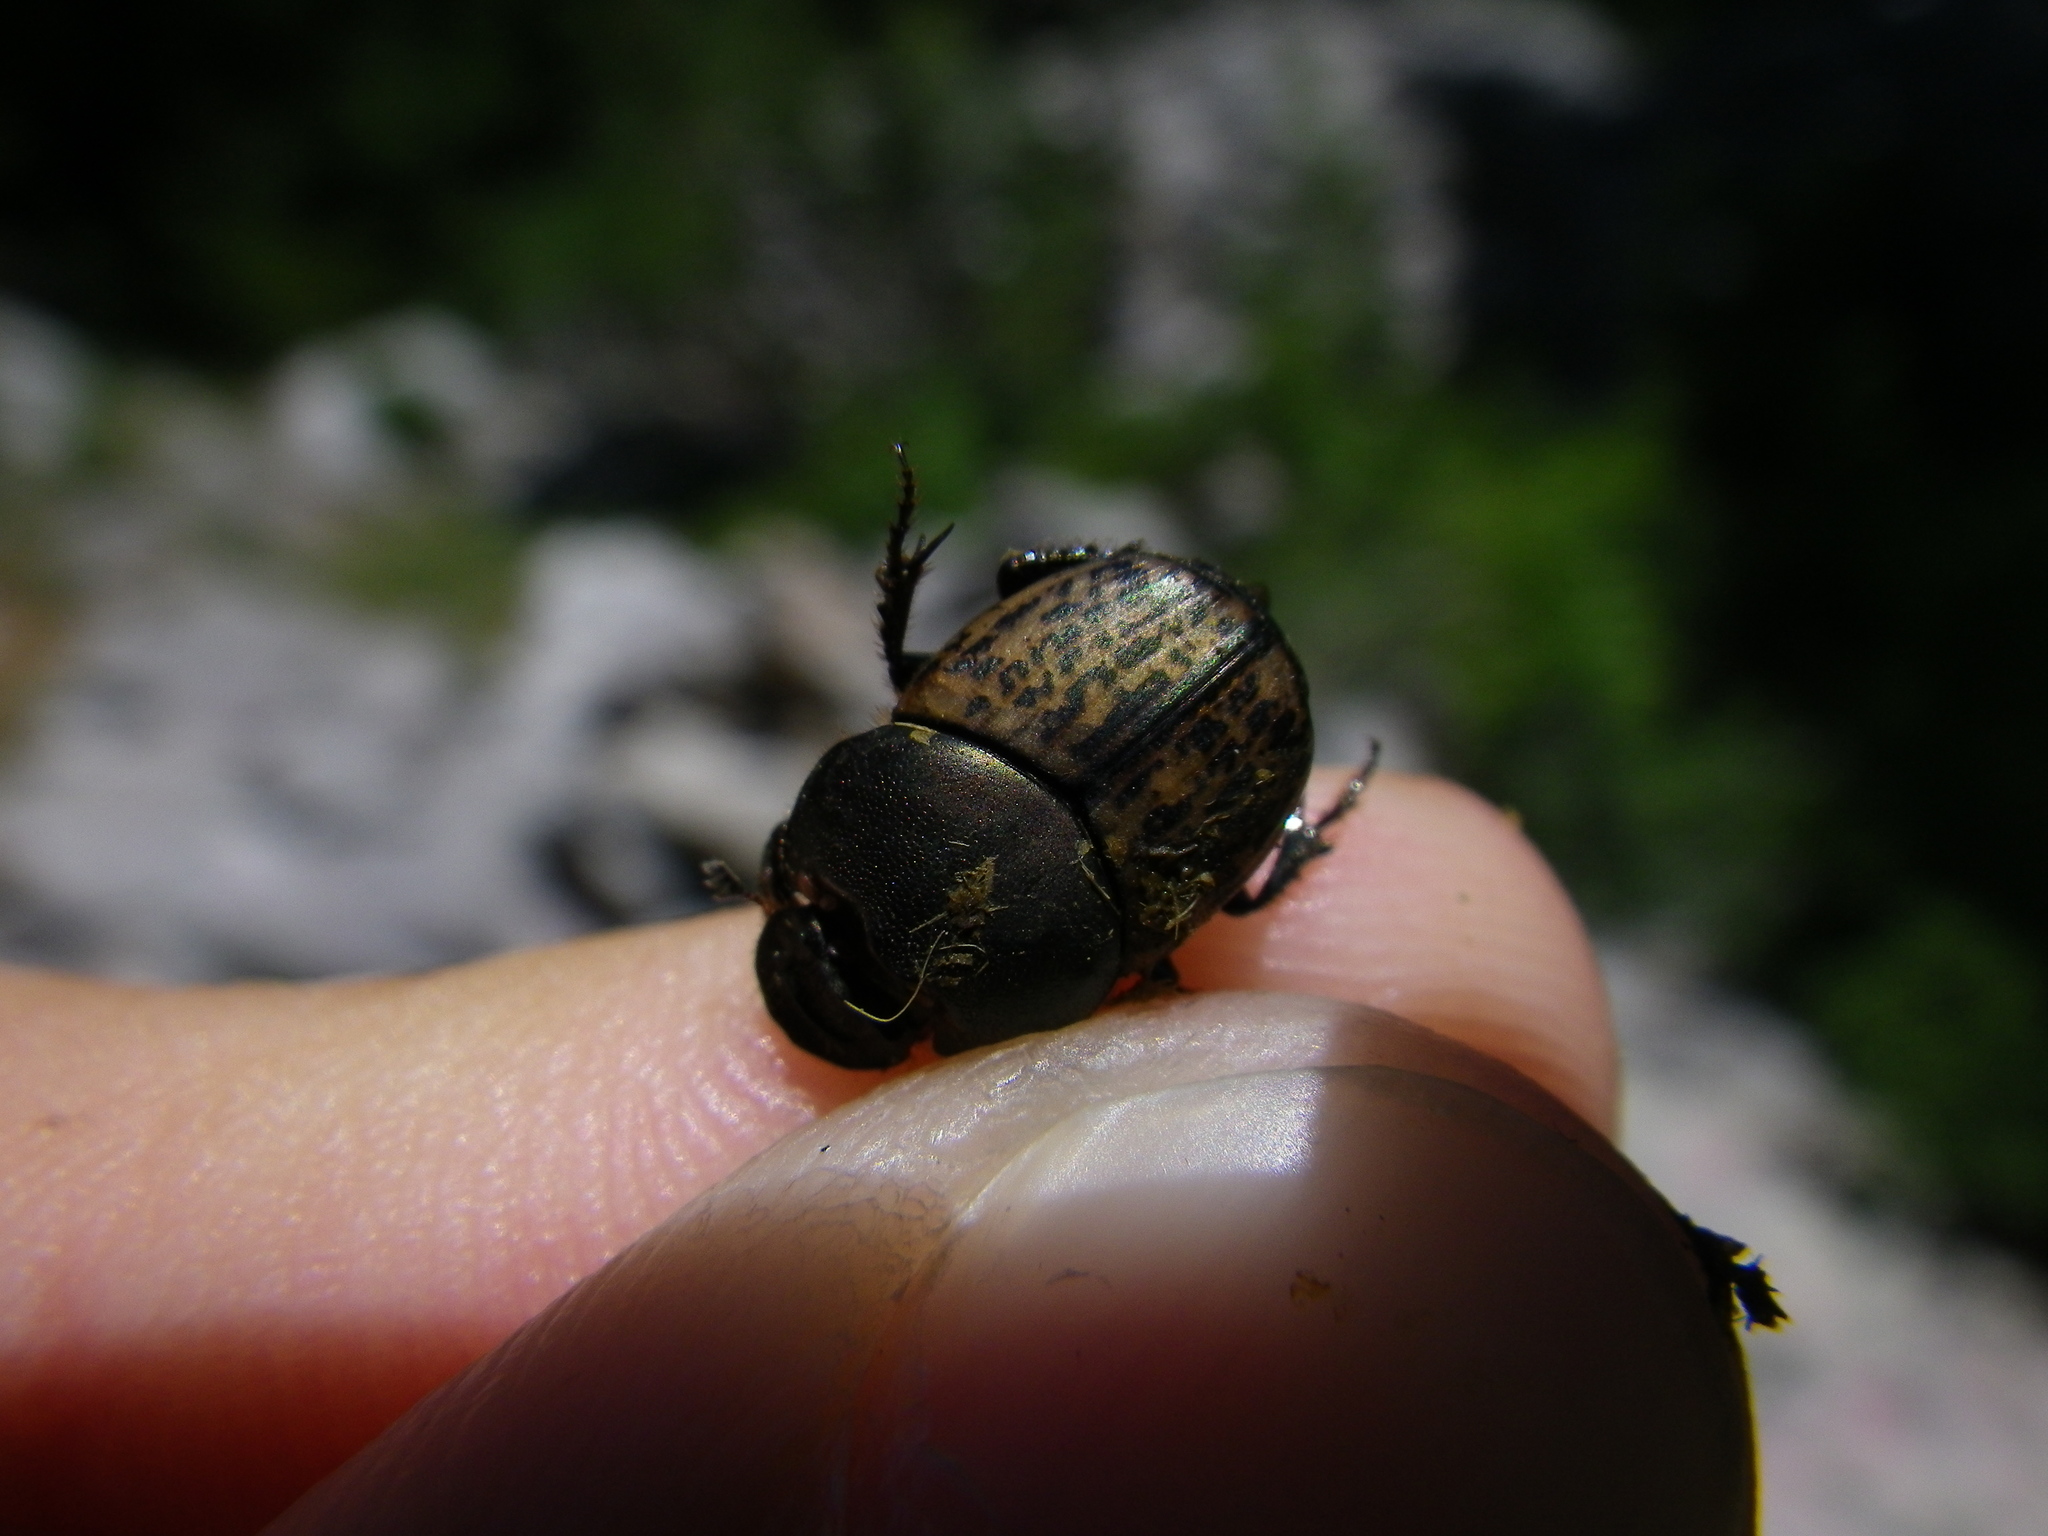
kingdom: Animalia
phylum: Arthropoda
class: Insecta
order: Coleoptera
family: Scarabaeidae
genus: Onthophagus
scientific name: Onthophagus medius
